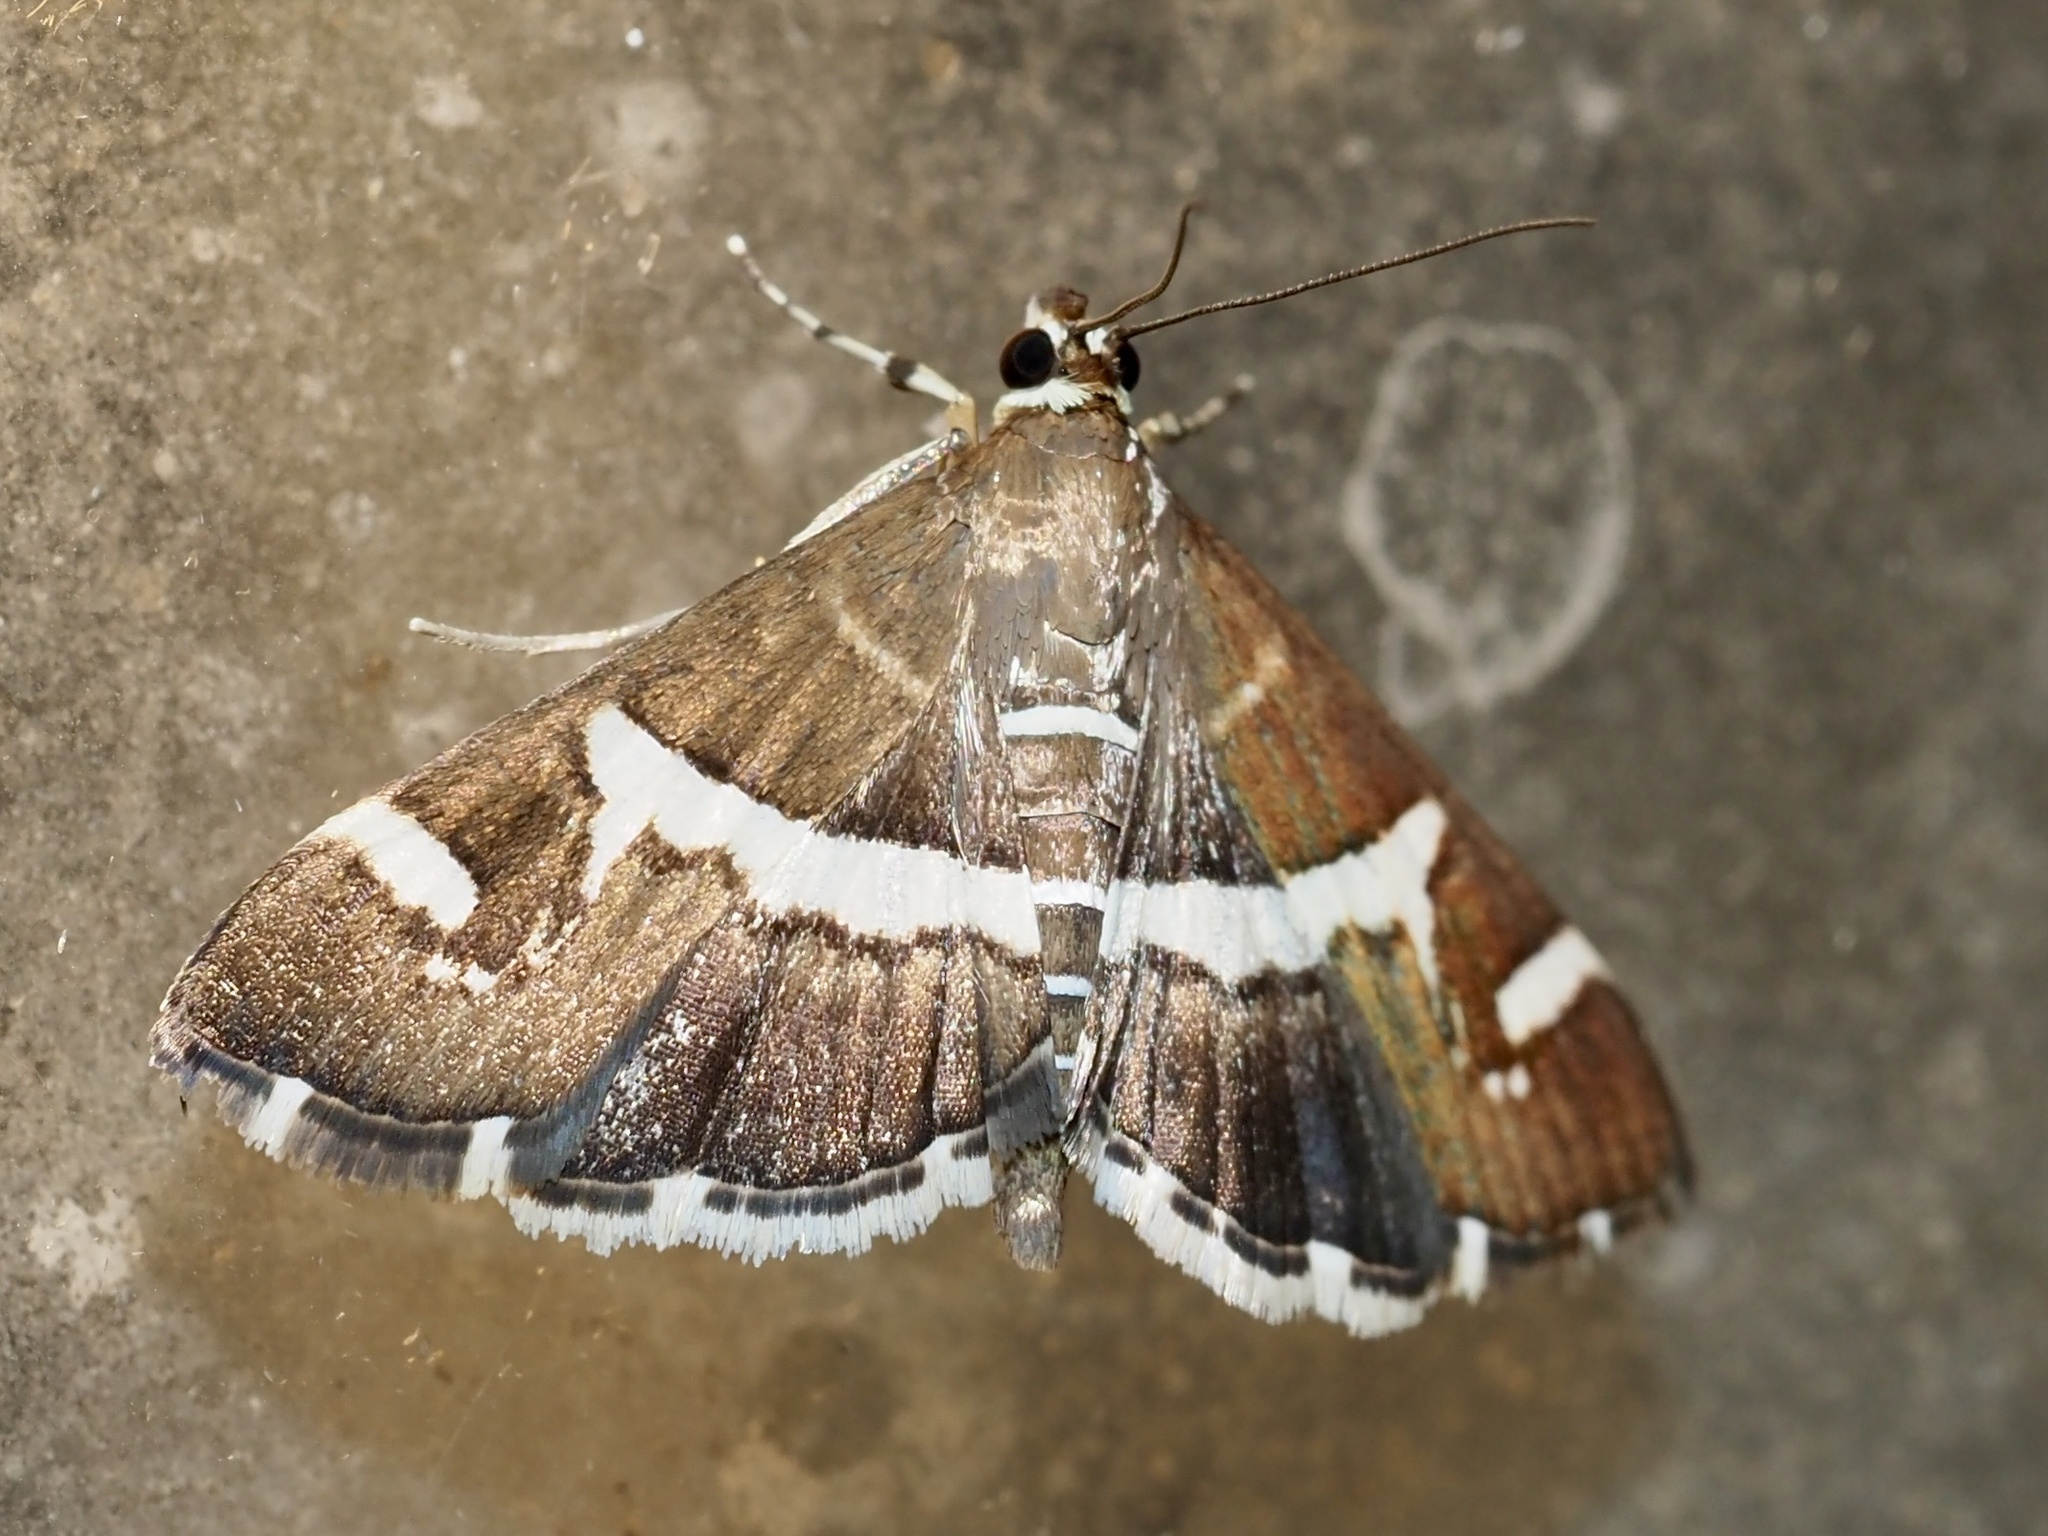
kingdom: Animalia
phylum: Arthropoda
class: Insecta
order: Lepidoptera
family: Crambidae
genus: Spoladea
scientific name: Spoladea recurvalis
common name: Beet webworm moth
